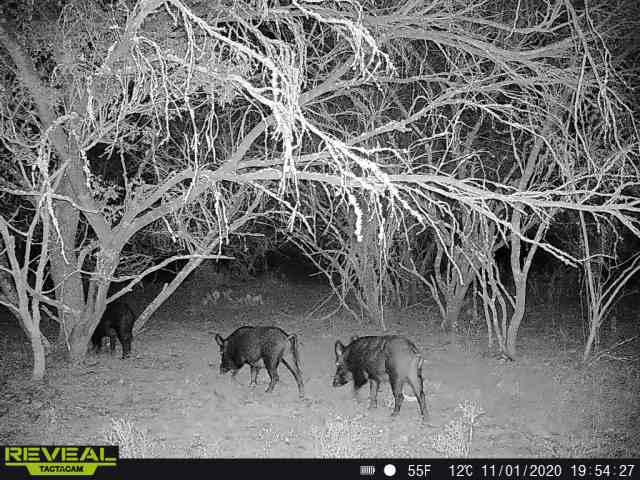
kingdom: Animalia
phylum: Chordata
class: Mammalia
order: Artiodactyla
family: Suidae
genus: Sus
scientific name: Sus scrofa
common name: Wild boar
